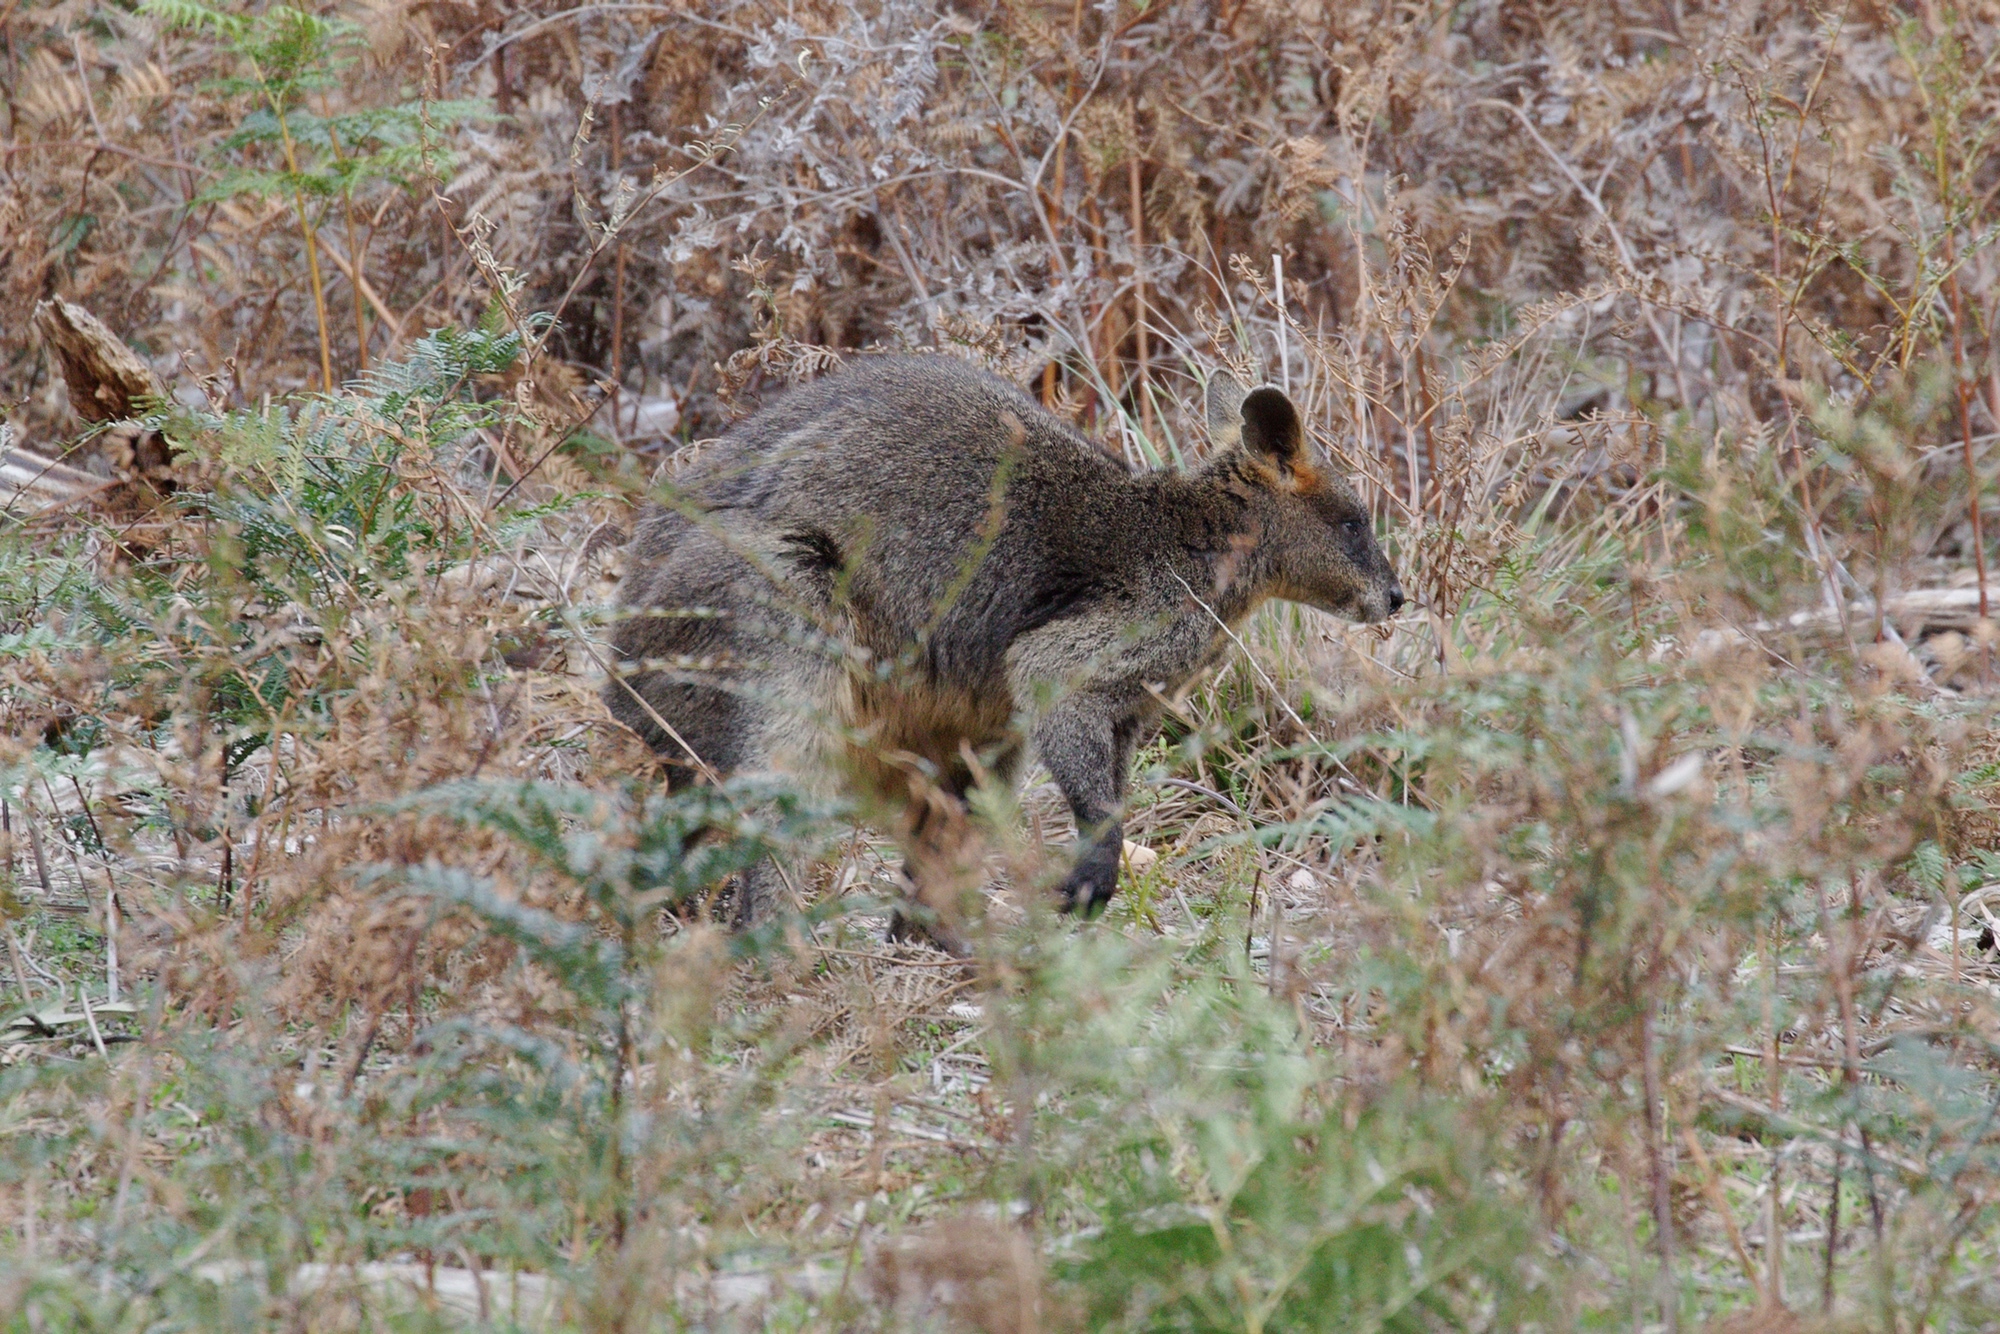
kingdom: Animalia
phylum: Chordata
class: Mammalia
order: Diprotodontia
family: Macropodidae
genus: Wallabia
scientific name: Wallabia bicolor
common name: Swamp wallaby
